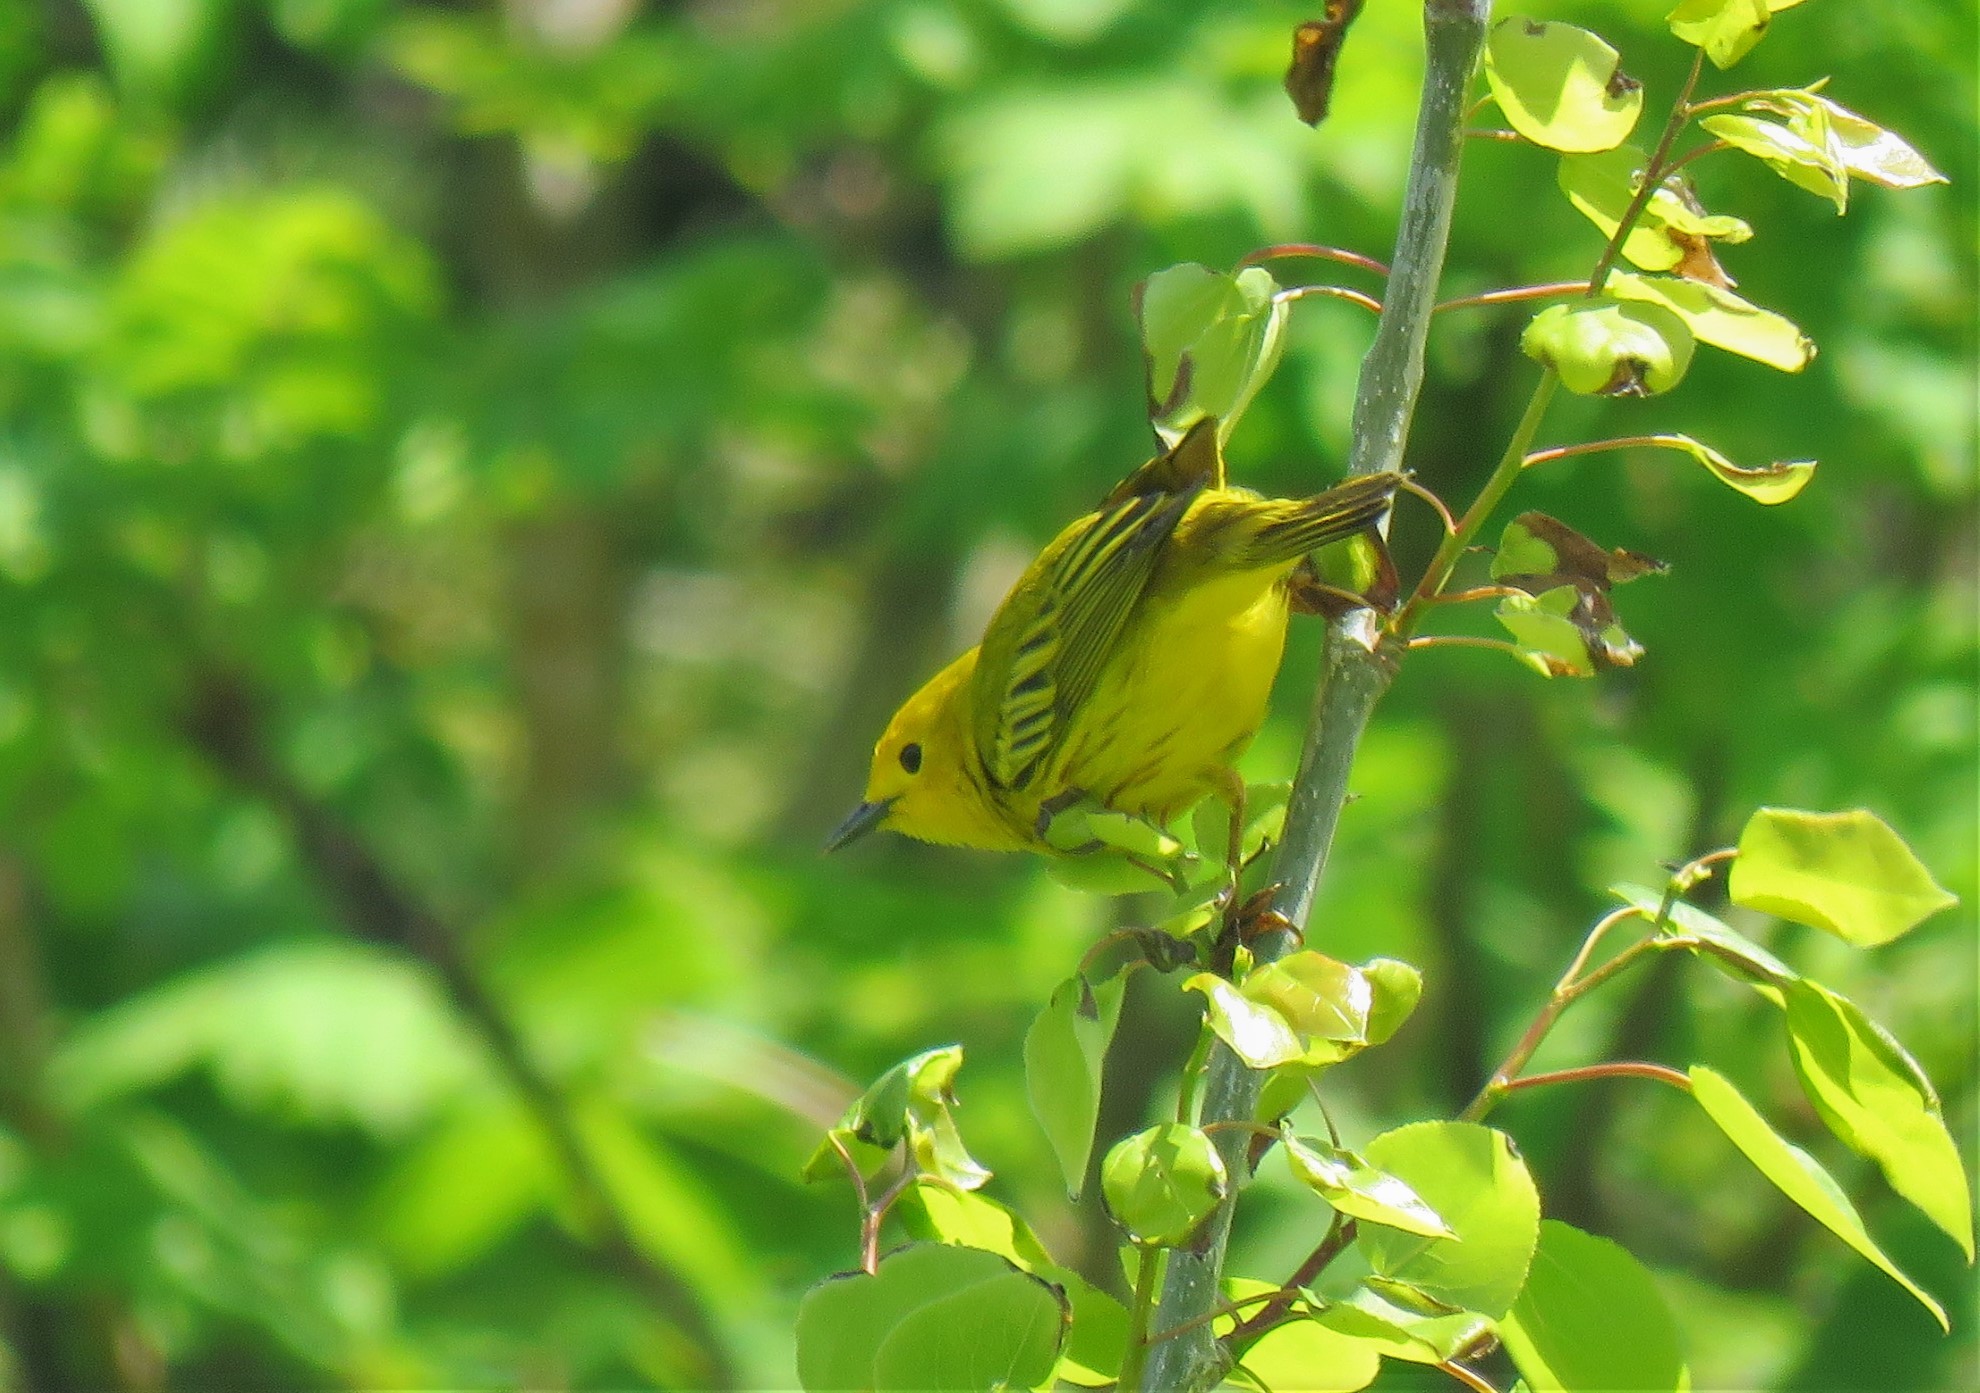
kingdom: Animalia
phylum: Chordata
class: Aves
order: Passeriformes
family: Parulidae
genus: Setophaga
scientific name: Setophaga petechia
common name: Yellow warbler
